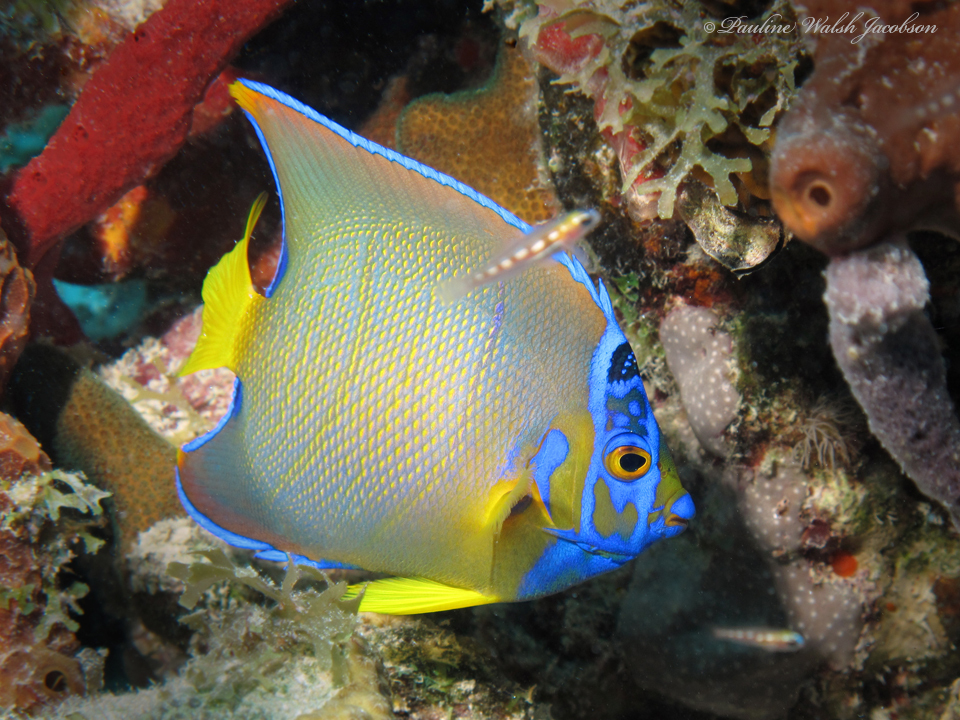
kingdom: Animalia
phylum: Chordata
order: Perciformes
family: Pomacanthidae
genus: Holacanthus
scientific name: Holacanthus ciliaris
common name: Queen angelfish
